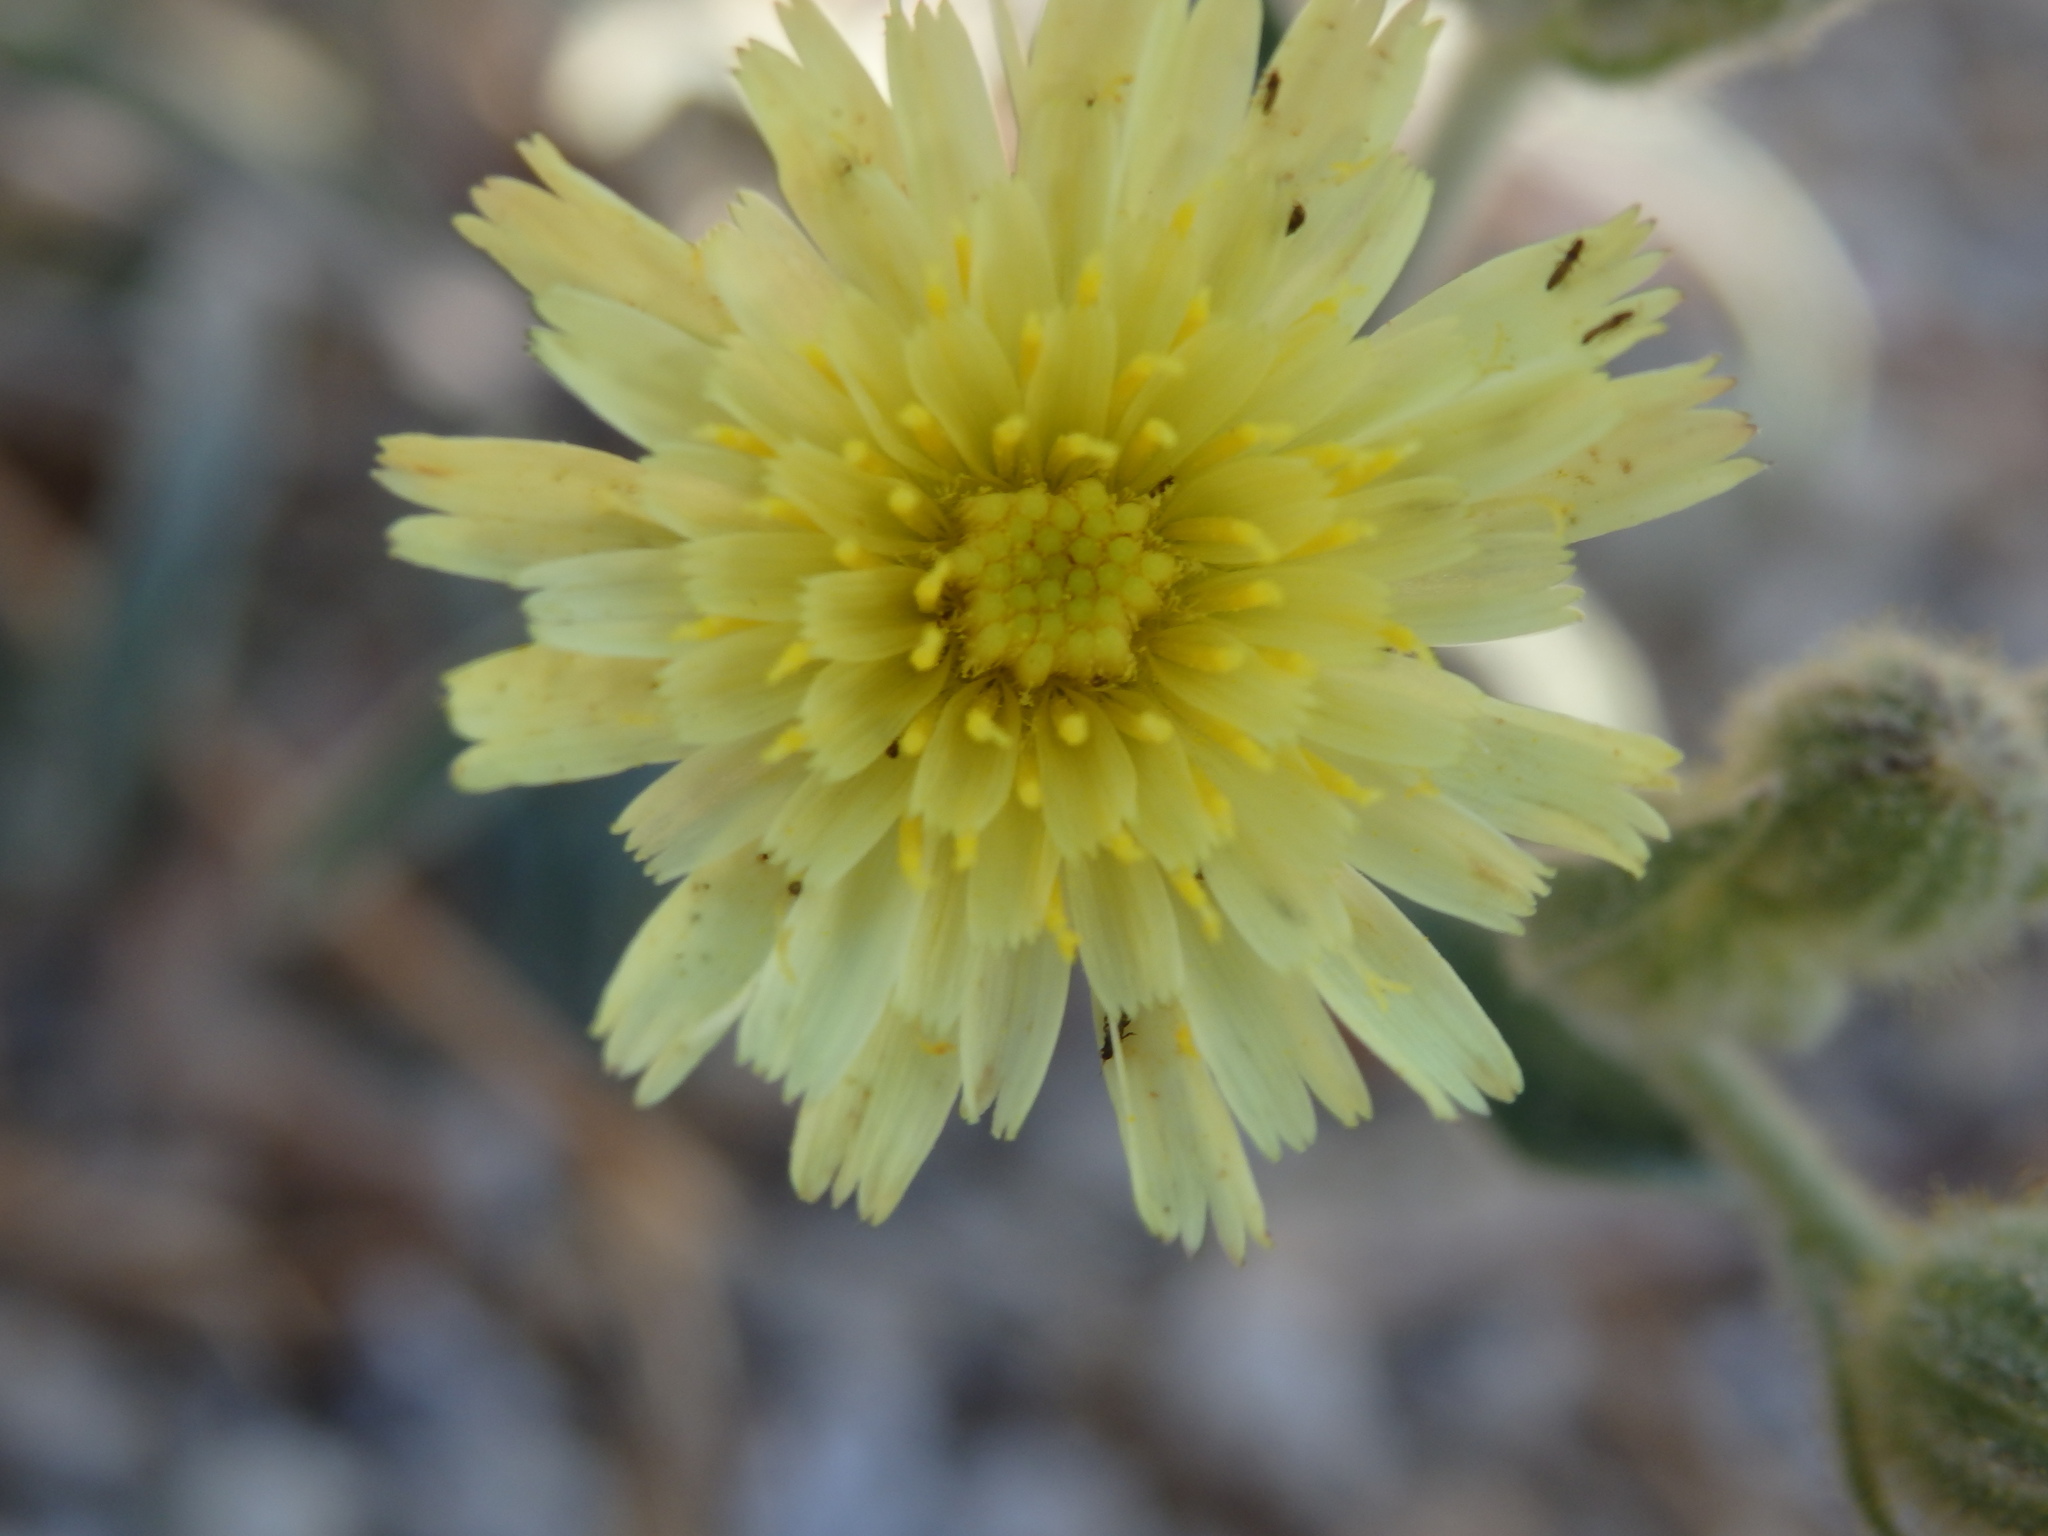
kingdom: Plantae
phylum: Tracheophyta
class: Magnoliopsida
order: Asterales
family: Asteraceae
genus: Andryala
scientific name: Andryala integrifolia
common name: Common andryala
